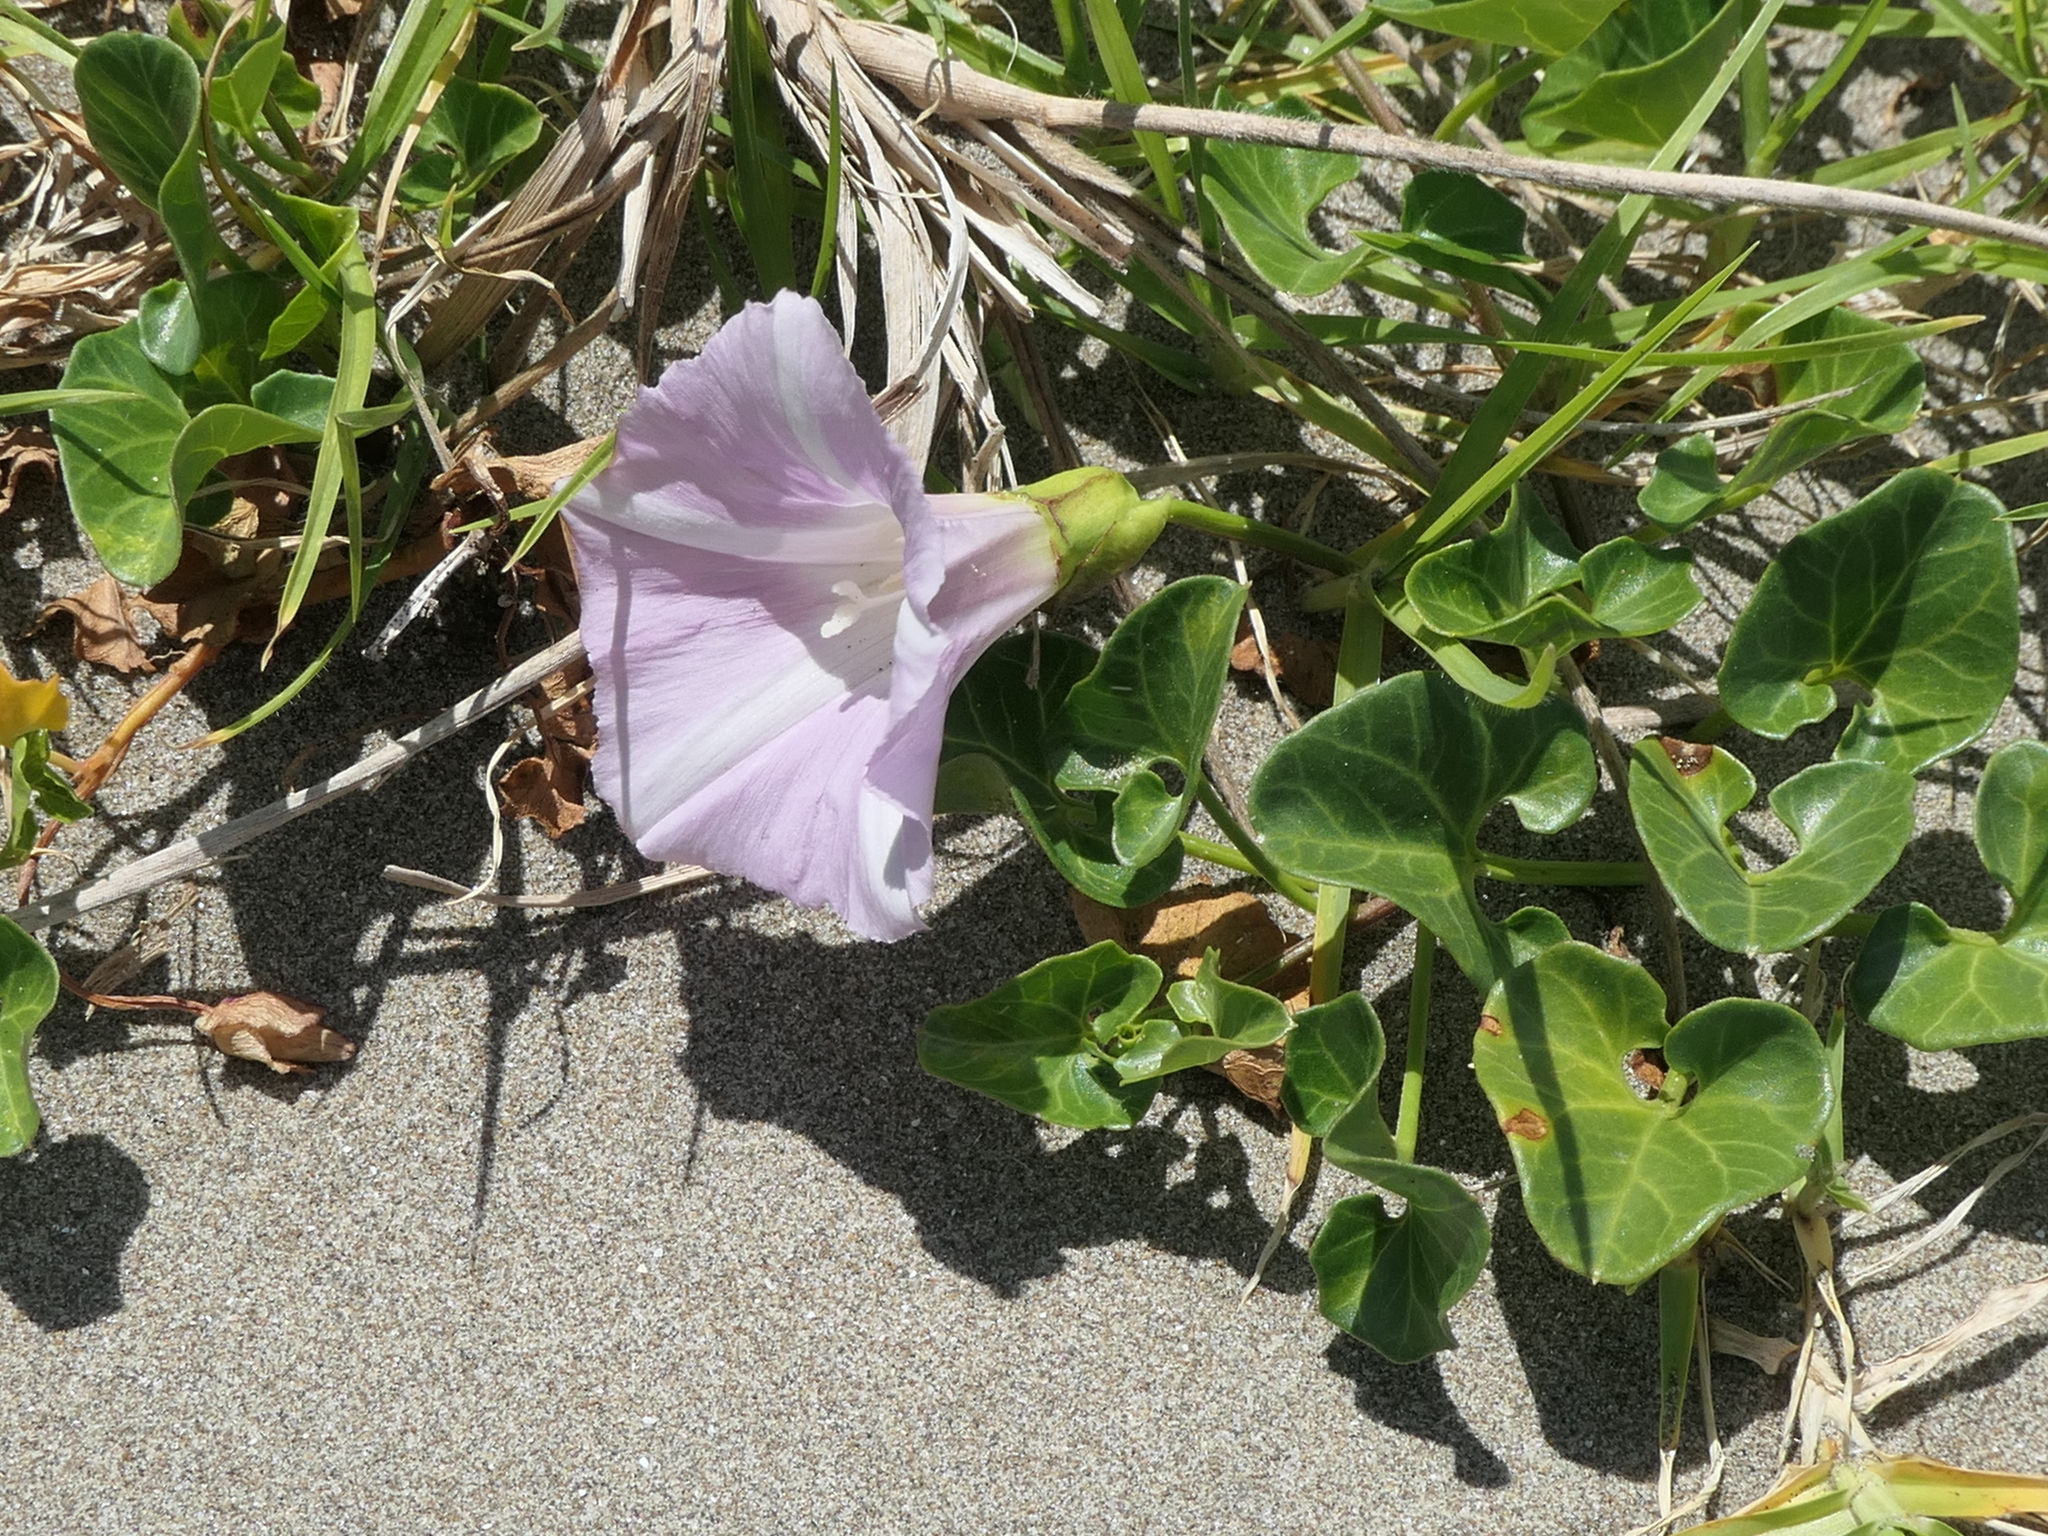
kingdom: Plantae
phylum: Tracheophyta
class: Magnoliopsida
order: Solanales
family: Convolvulaceae
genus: Calystegia
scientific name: Calystegia soldanella
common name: Sea bindweed
